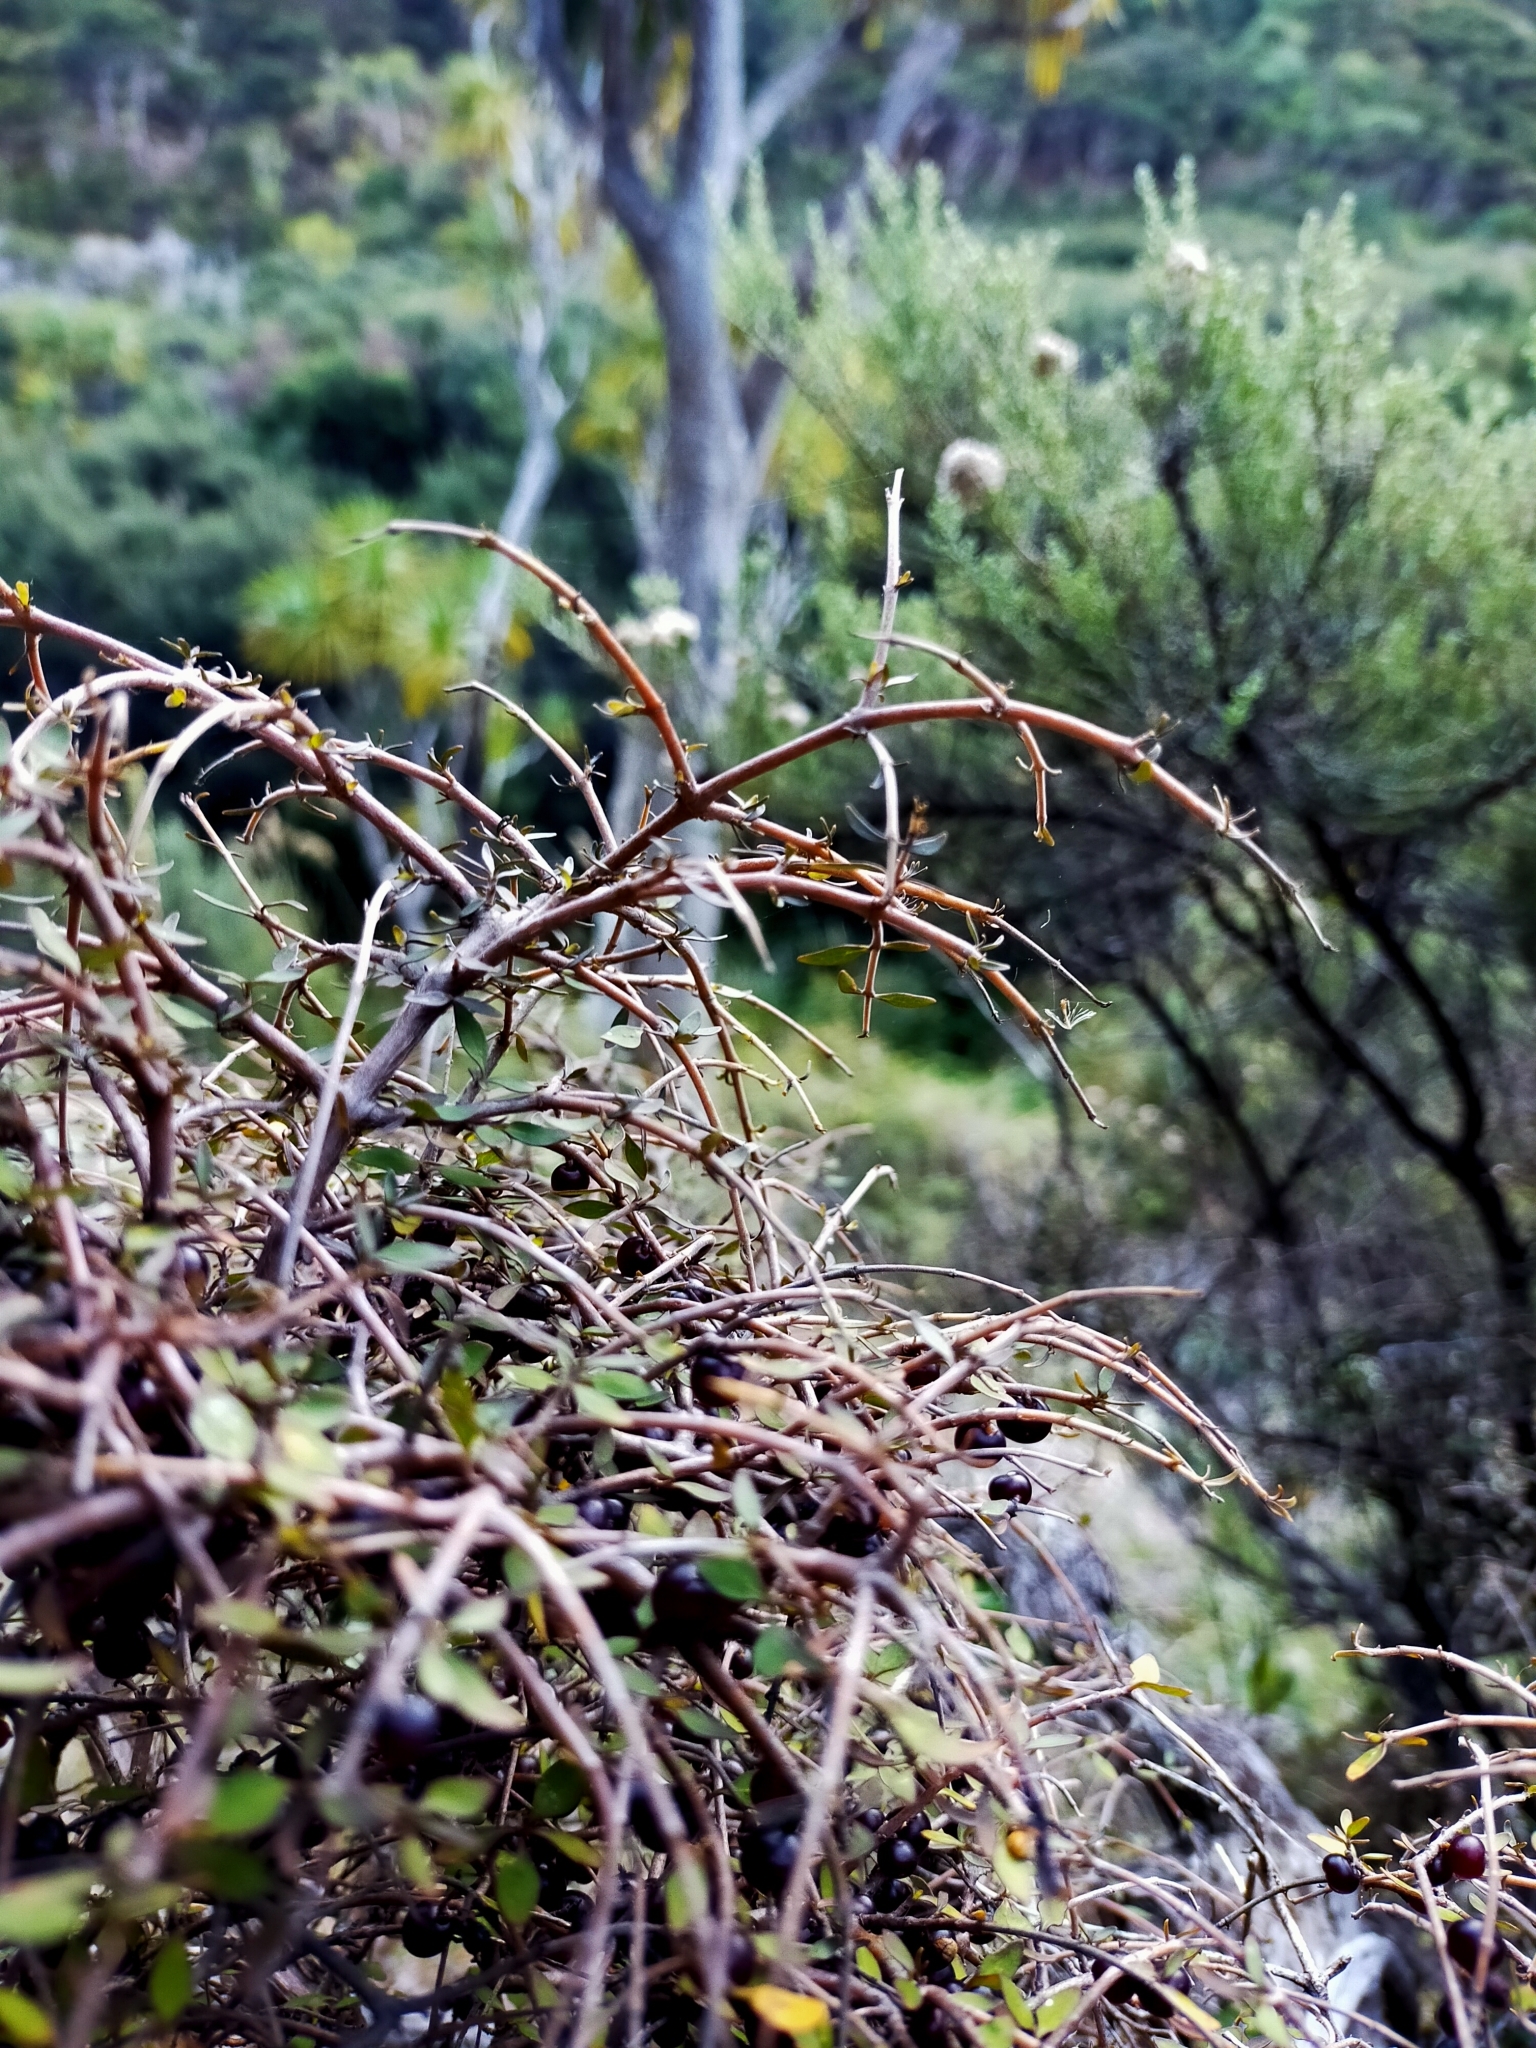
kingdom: Plantae
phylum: Tracheophyta
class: Magnoliopsida
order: Gentianales
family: Rubiaceae
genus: Coprosma
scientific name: Coprosma rhamnoides
